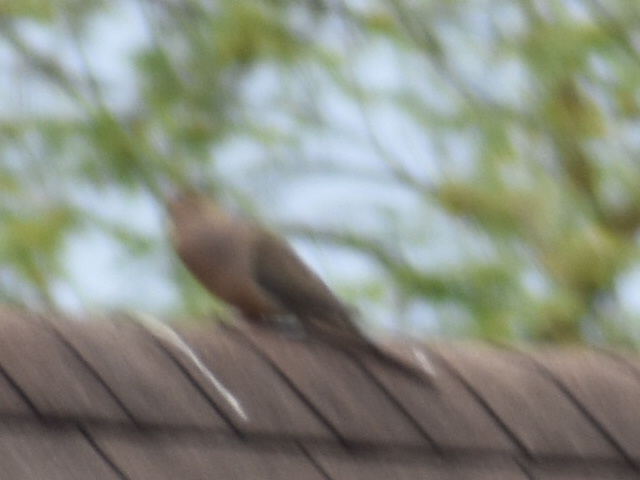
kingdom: Animalia
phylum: Chordata
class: Aves
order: Columbiformes
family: Columbidae
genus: Zenaida
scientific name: Zenaida macroura
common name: Mourning dove
